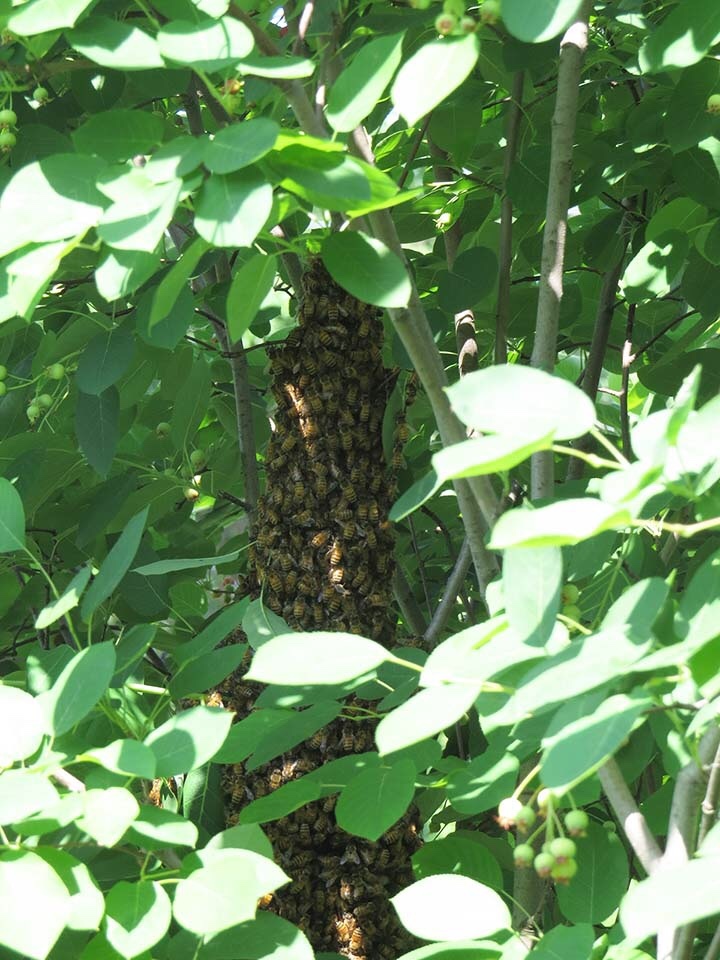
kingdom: Animalia
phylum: Arthropoda
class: Insecta
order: Hymenoptera
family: Apidae
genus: Apis
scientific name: Apis mellifera
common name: Honey bee
